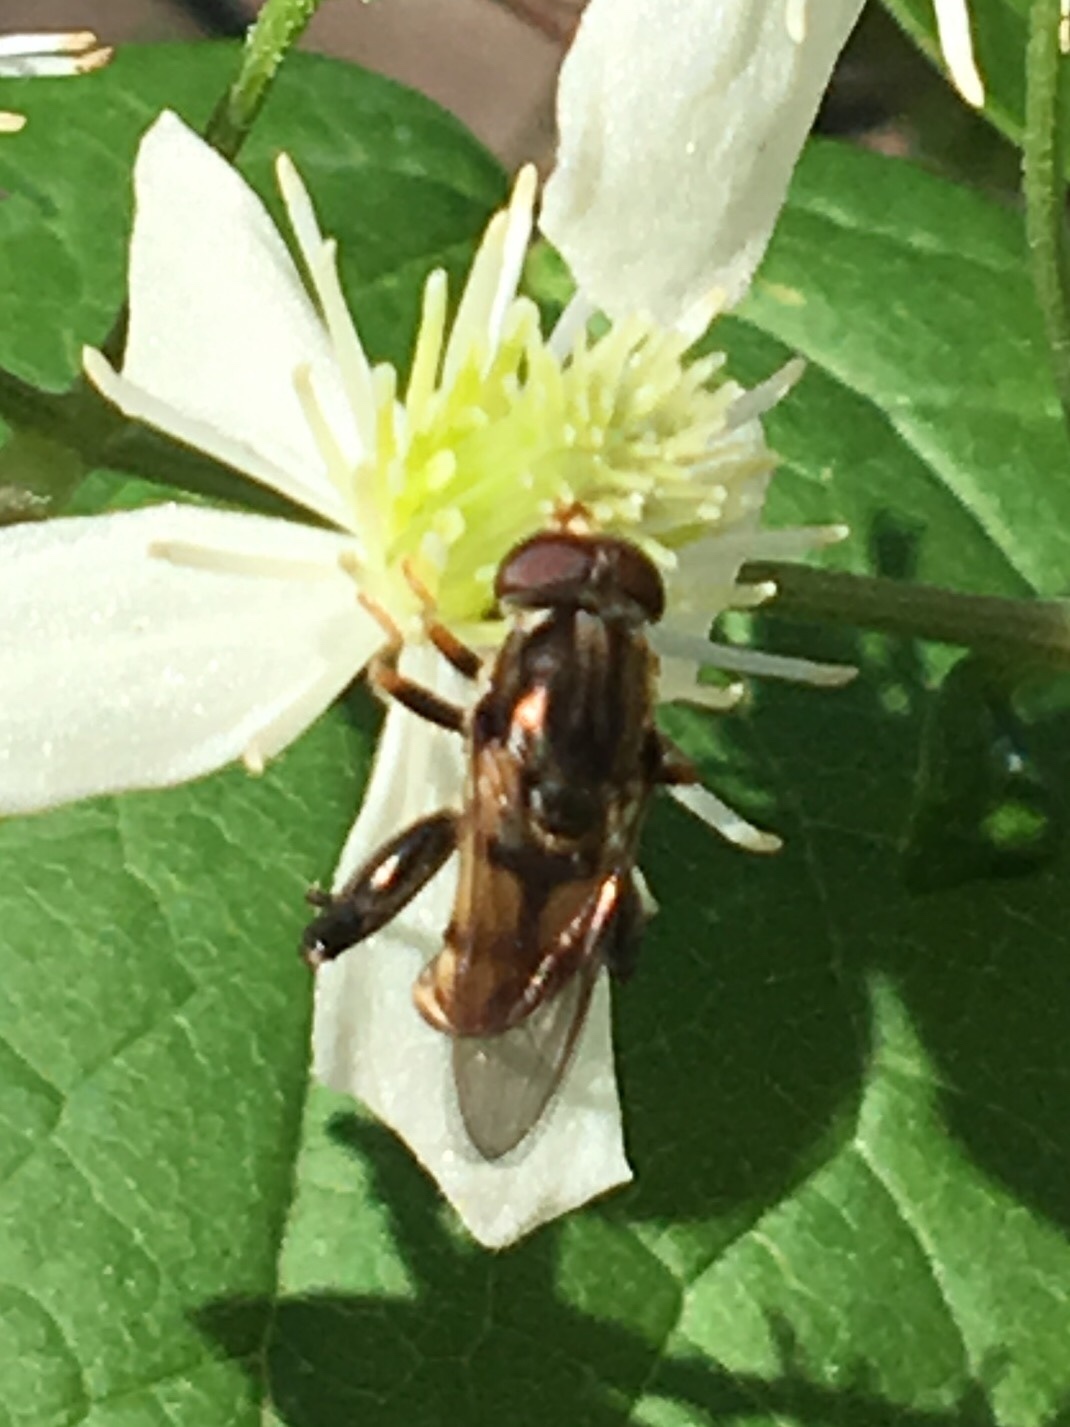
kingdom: Animalia
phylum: Arthropoda
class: Insecta
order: Diptera
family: Syrphidae
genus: Tropidia
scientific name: Tropidia quadrata
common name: Common thick-legged fly
